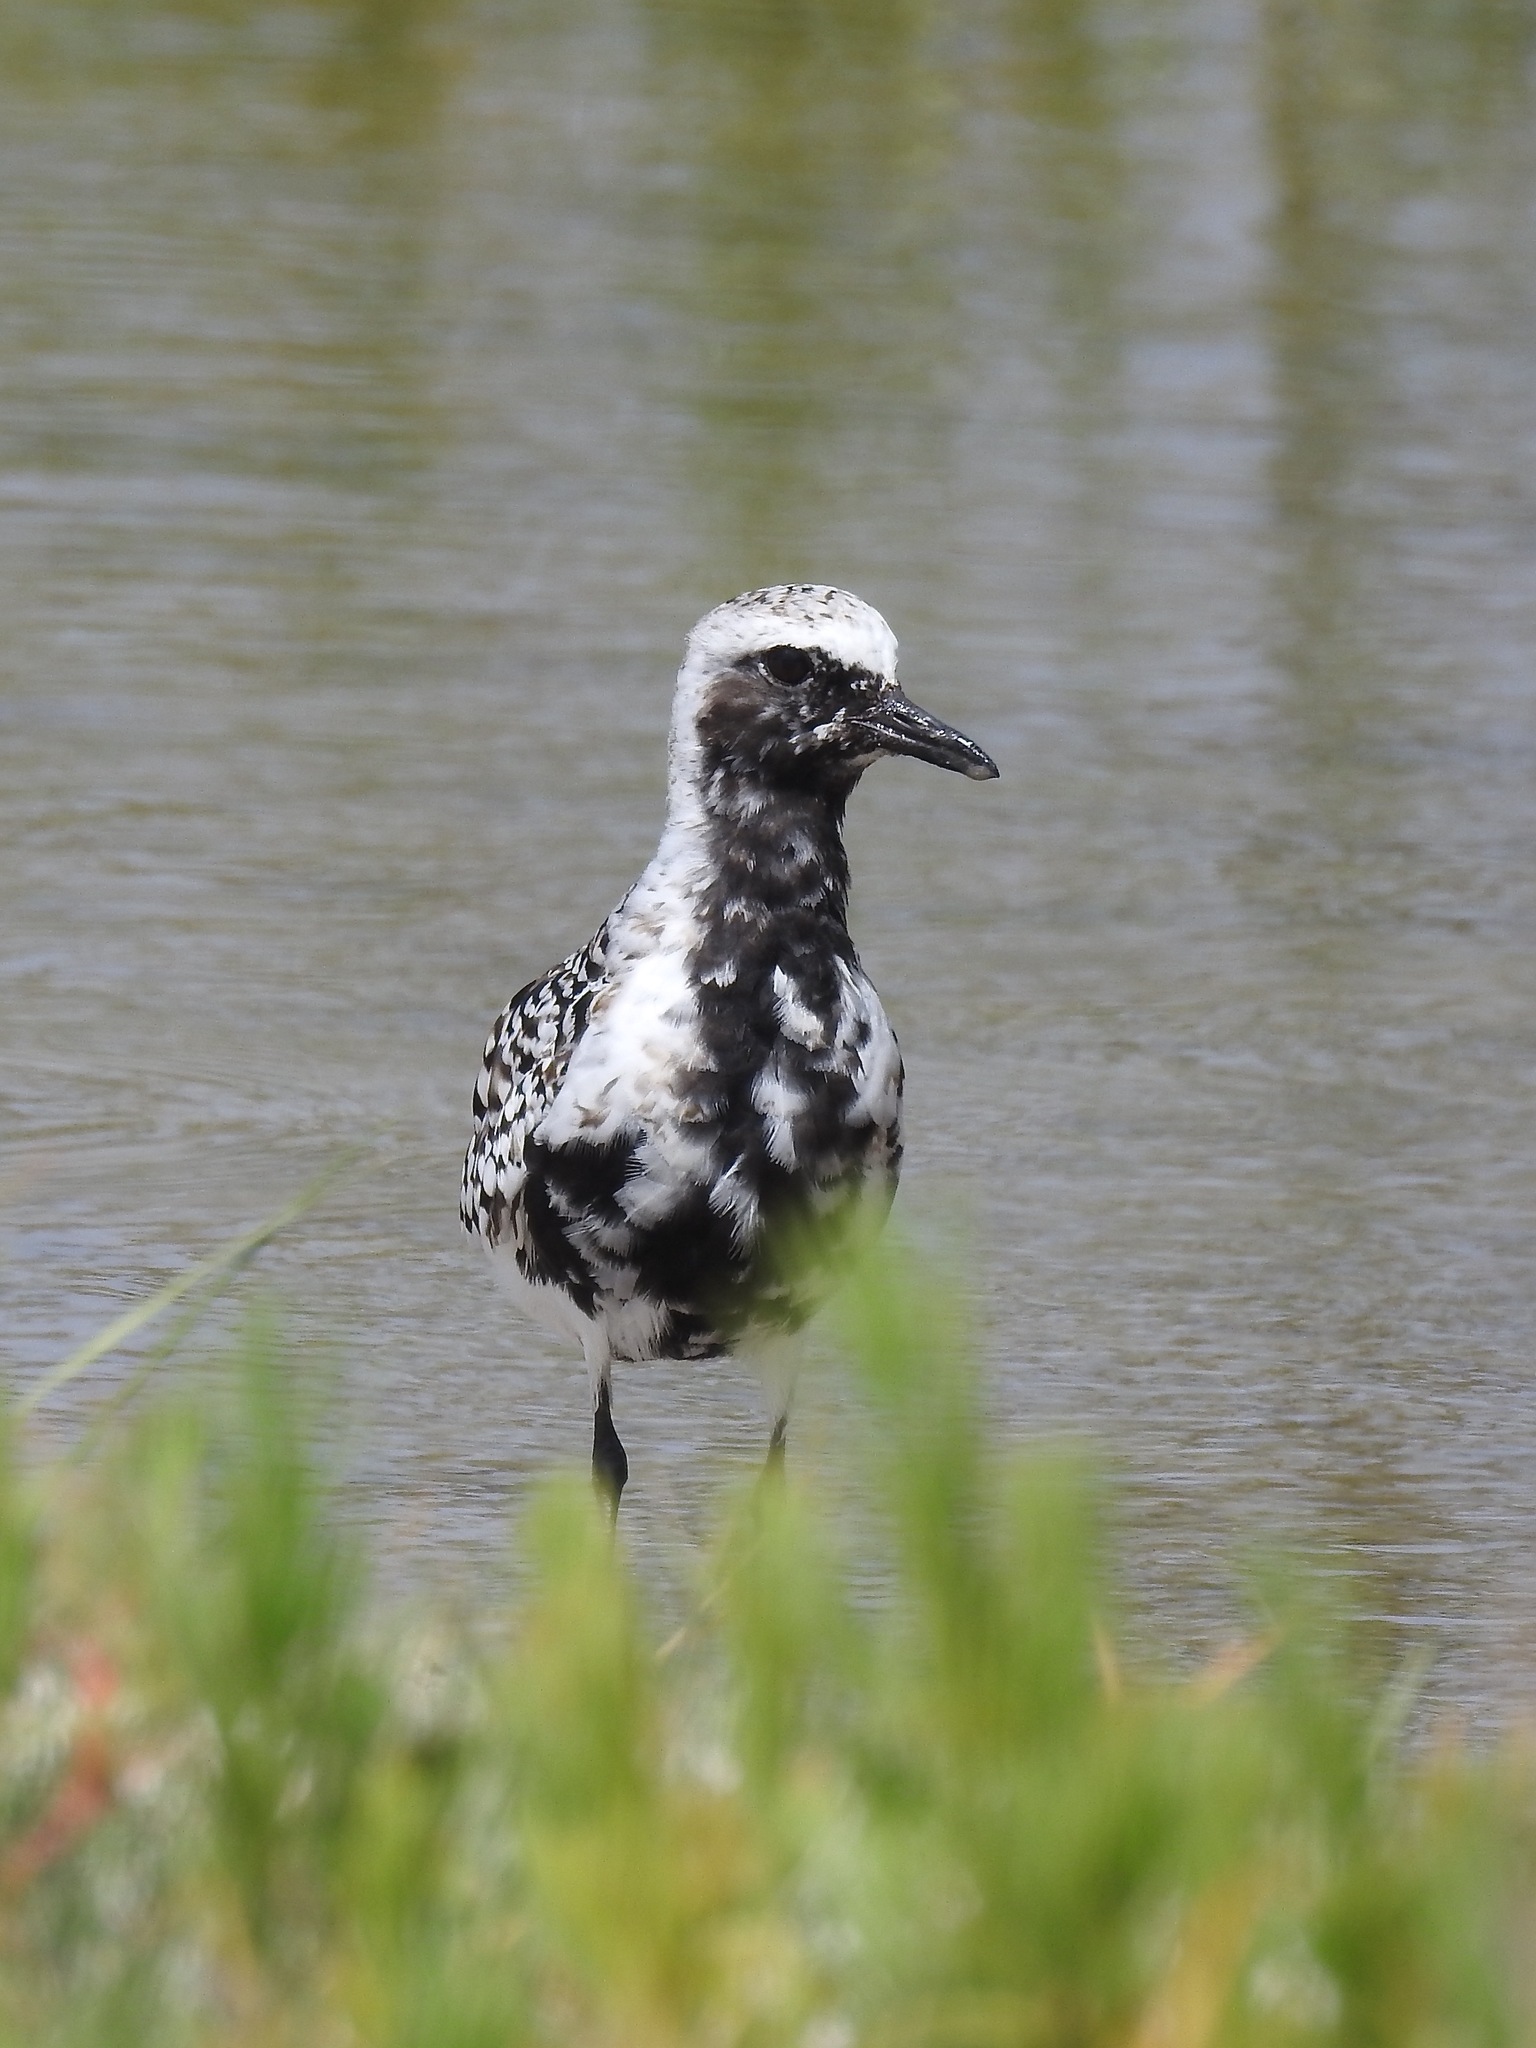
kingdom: Animalia
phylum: Chordata
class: Aves
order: Charadriiformes
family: Charadriidae
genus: Pluvialis
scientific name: Pluvialis squatarola
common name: Grey plover
